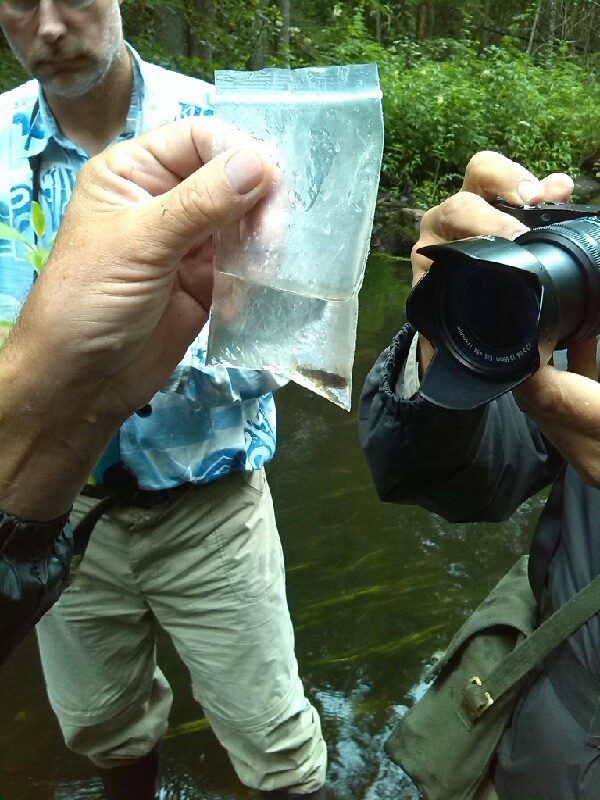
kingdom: Animalia
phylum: Chordata
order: Scorpaeniformes
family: Cottidae
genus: Cottus
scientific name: Cottus cyclophthalmus
